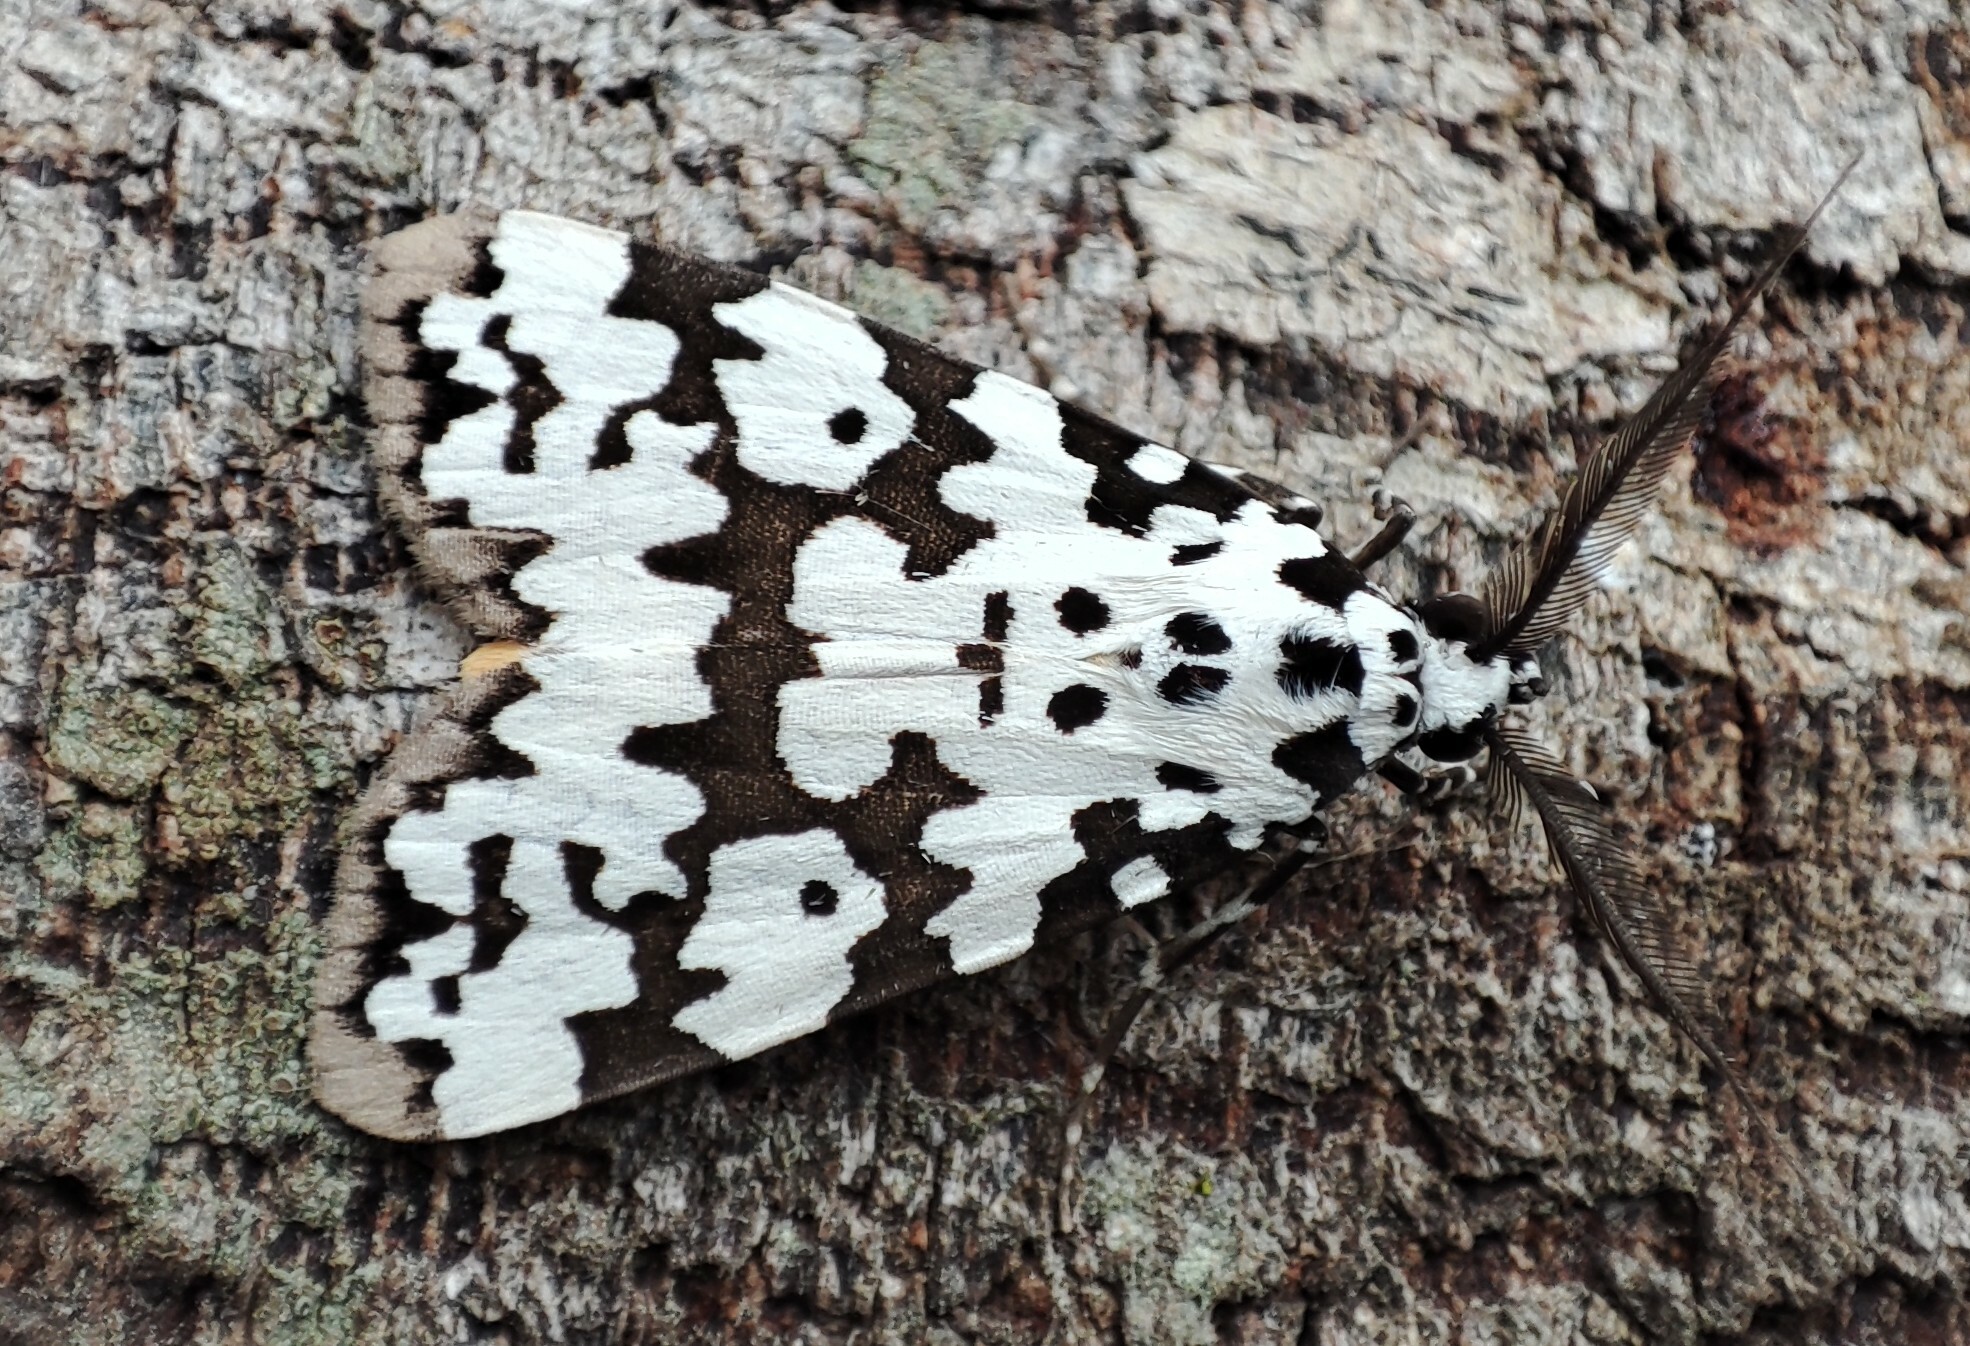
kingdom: Animalia
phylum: Arthropoda
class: Insecta
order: Lepidoptera
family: Erebidae
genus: Digama
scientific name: Digama spilosoma
